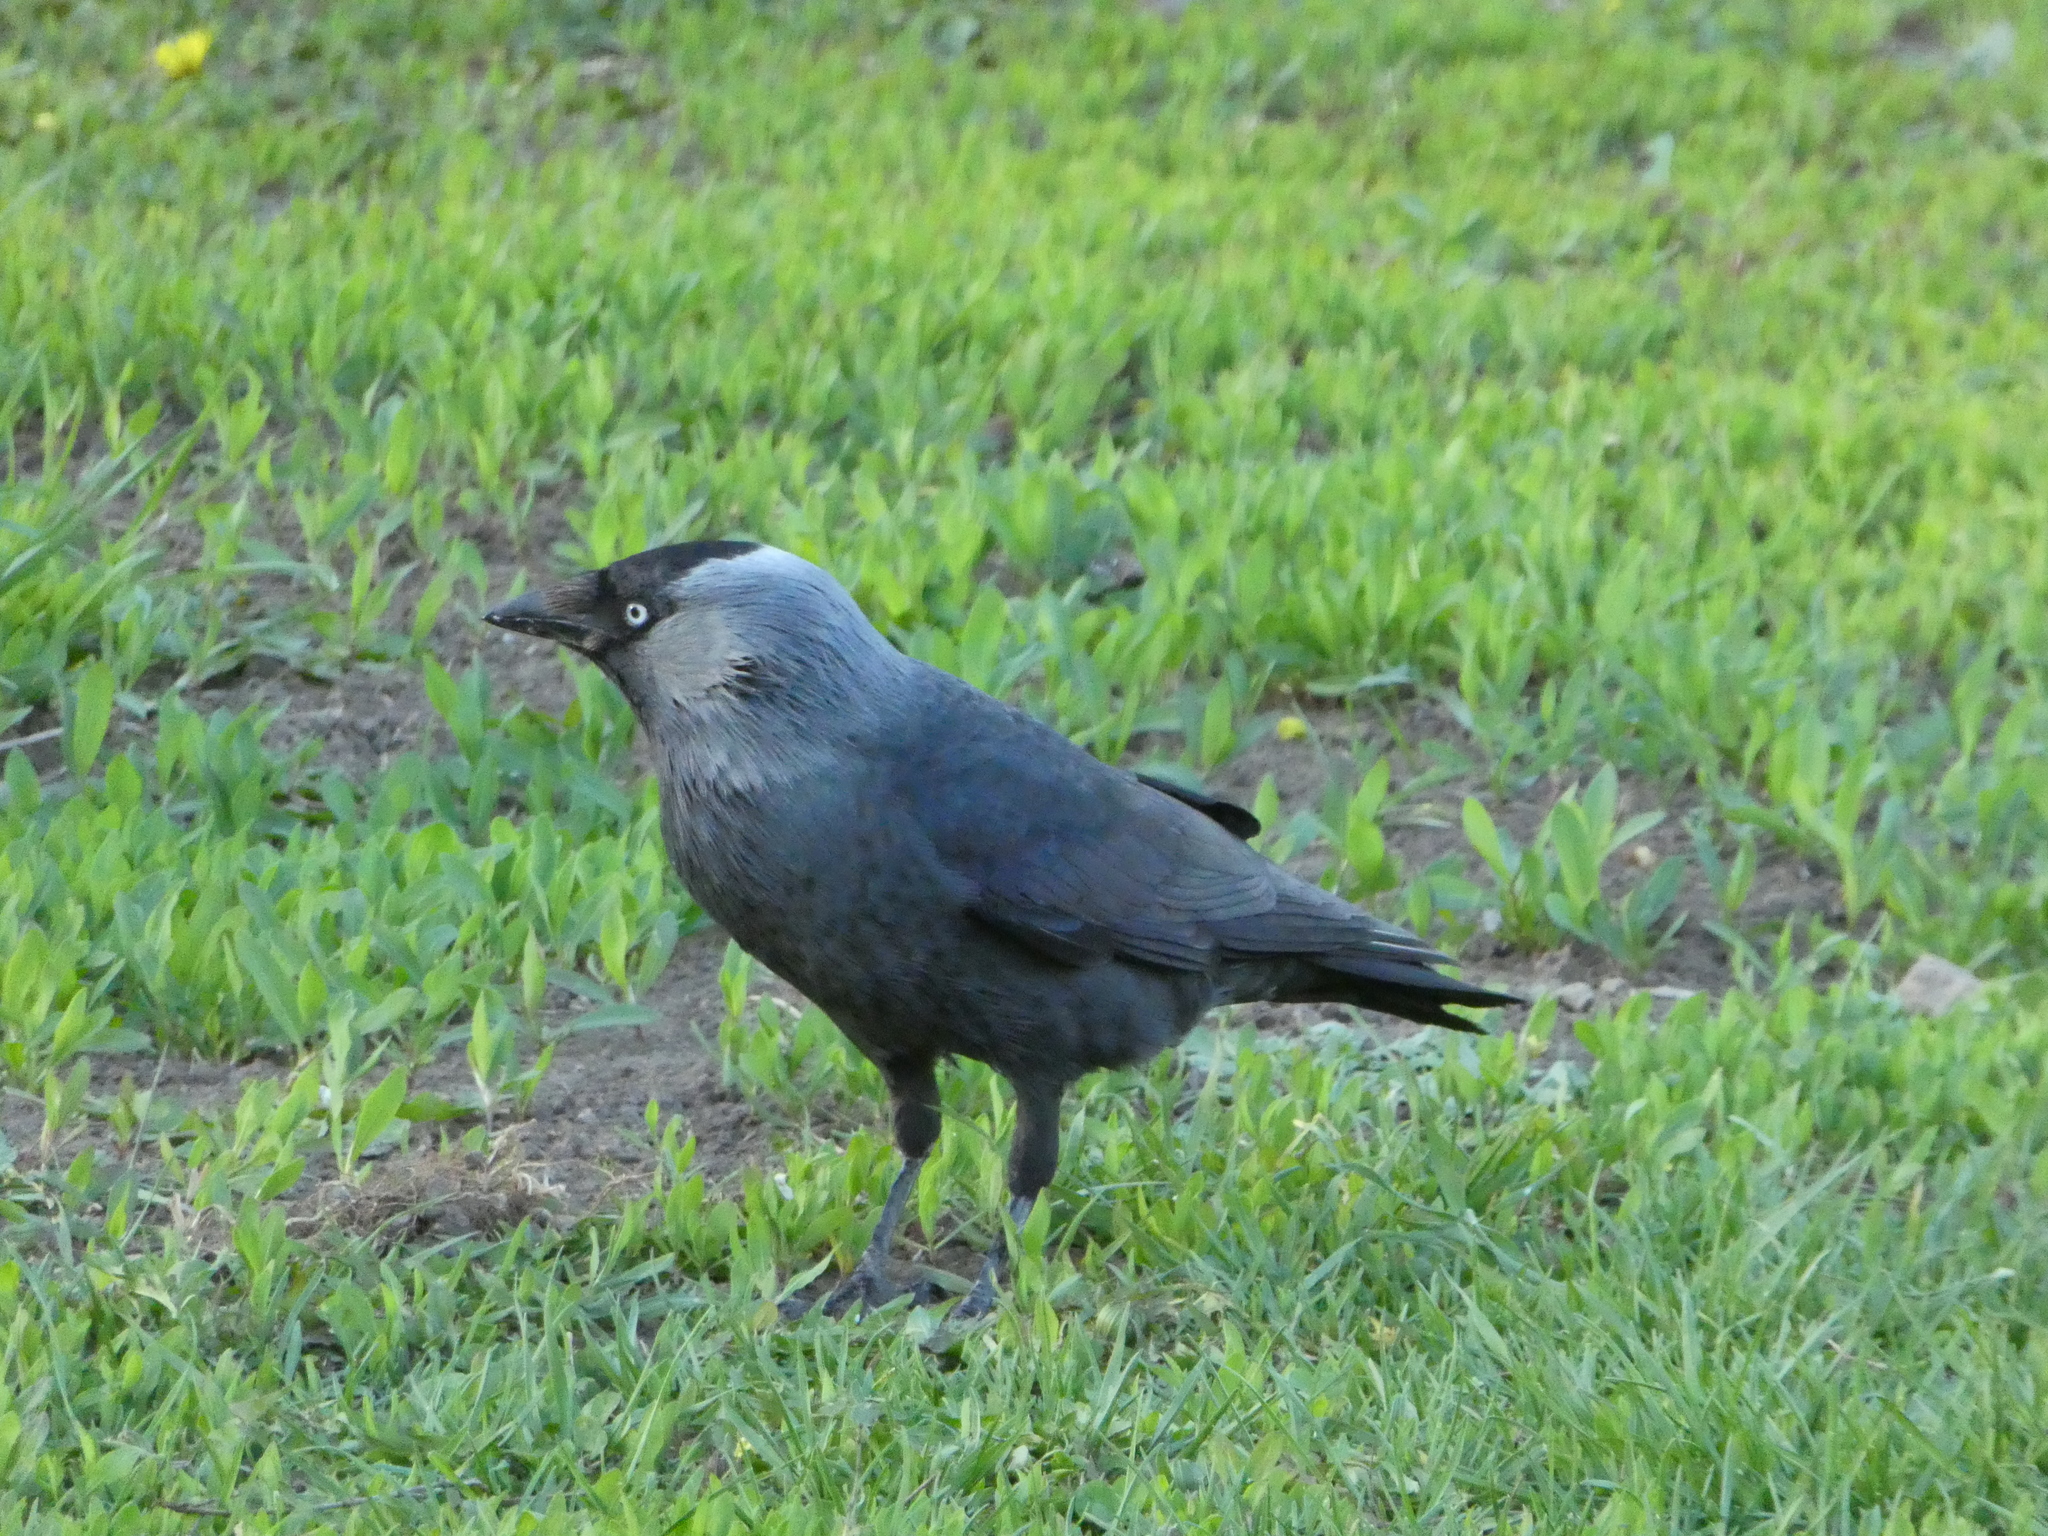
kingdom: Animalia
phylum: Chordata
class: Aves
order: Passeriformes
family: Corvidae
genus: Coloeus
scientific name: Coloeus monedula
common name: Western jackdaw
